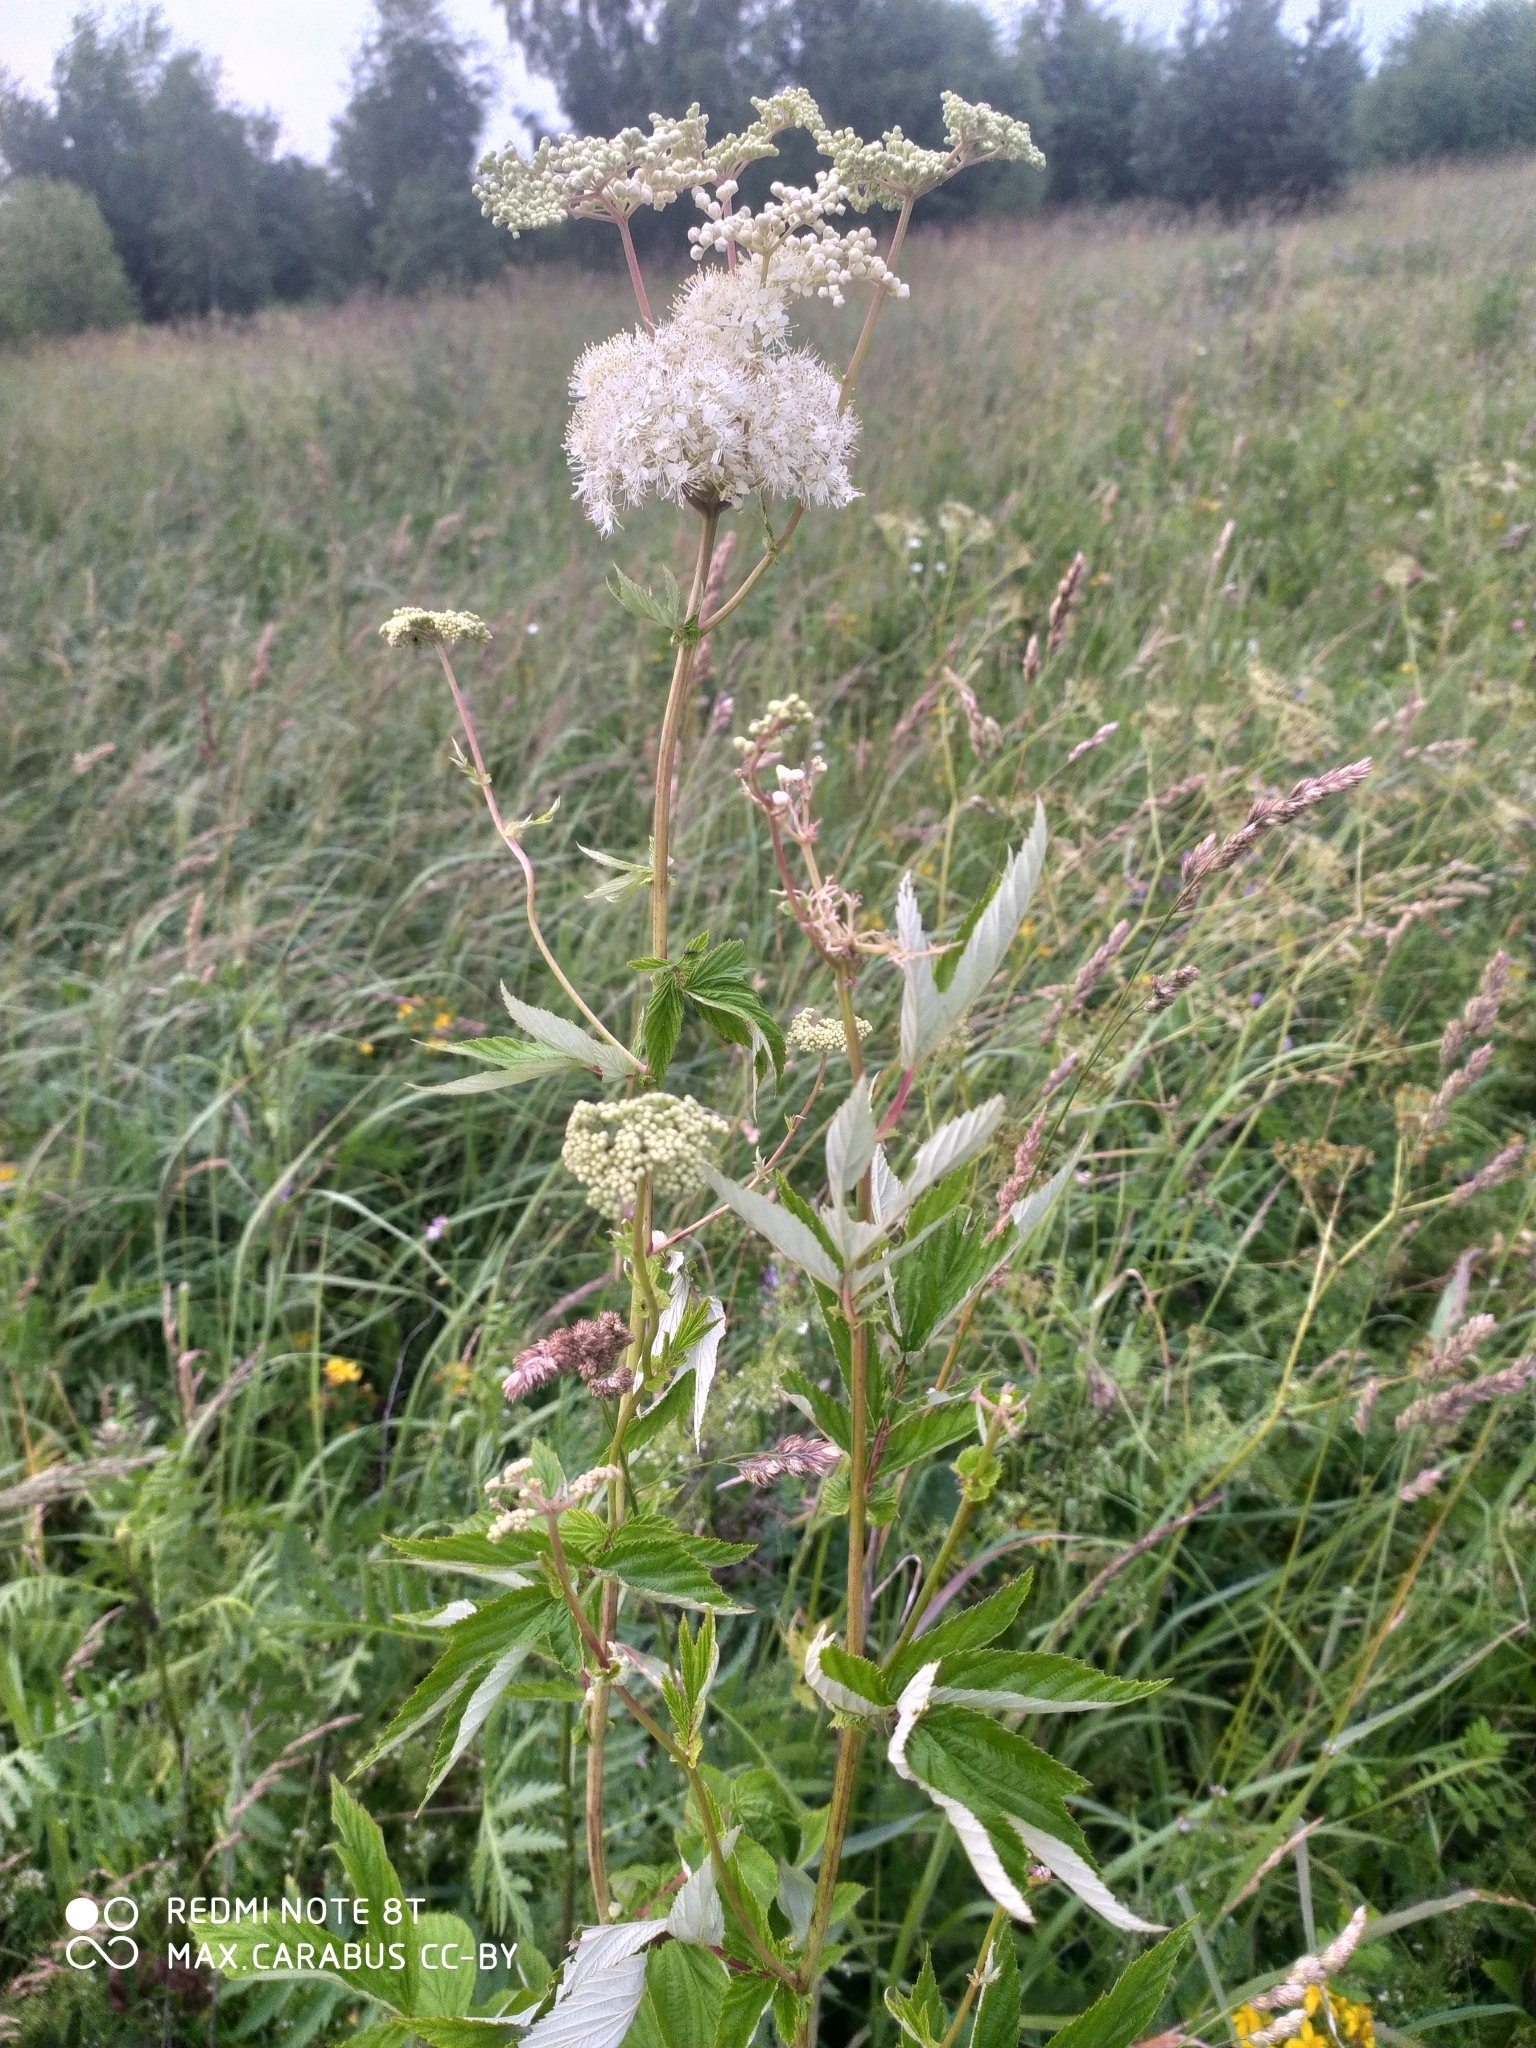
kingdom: Plantae
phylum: Tracheophyta
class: Magnoliopsida
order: Rosales
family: Rosaceae
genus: Filipendula
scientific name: Filipendula ulmaria
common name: Meadowsweet
